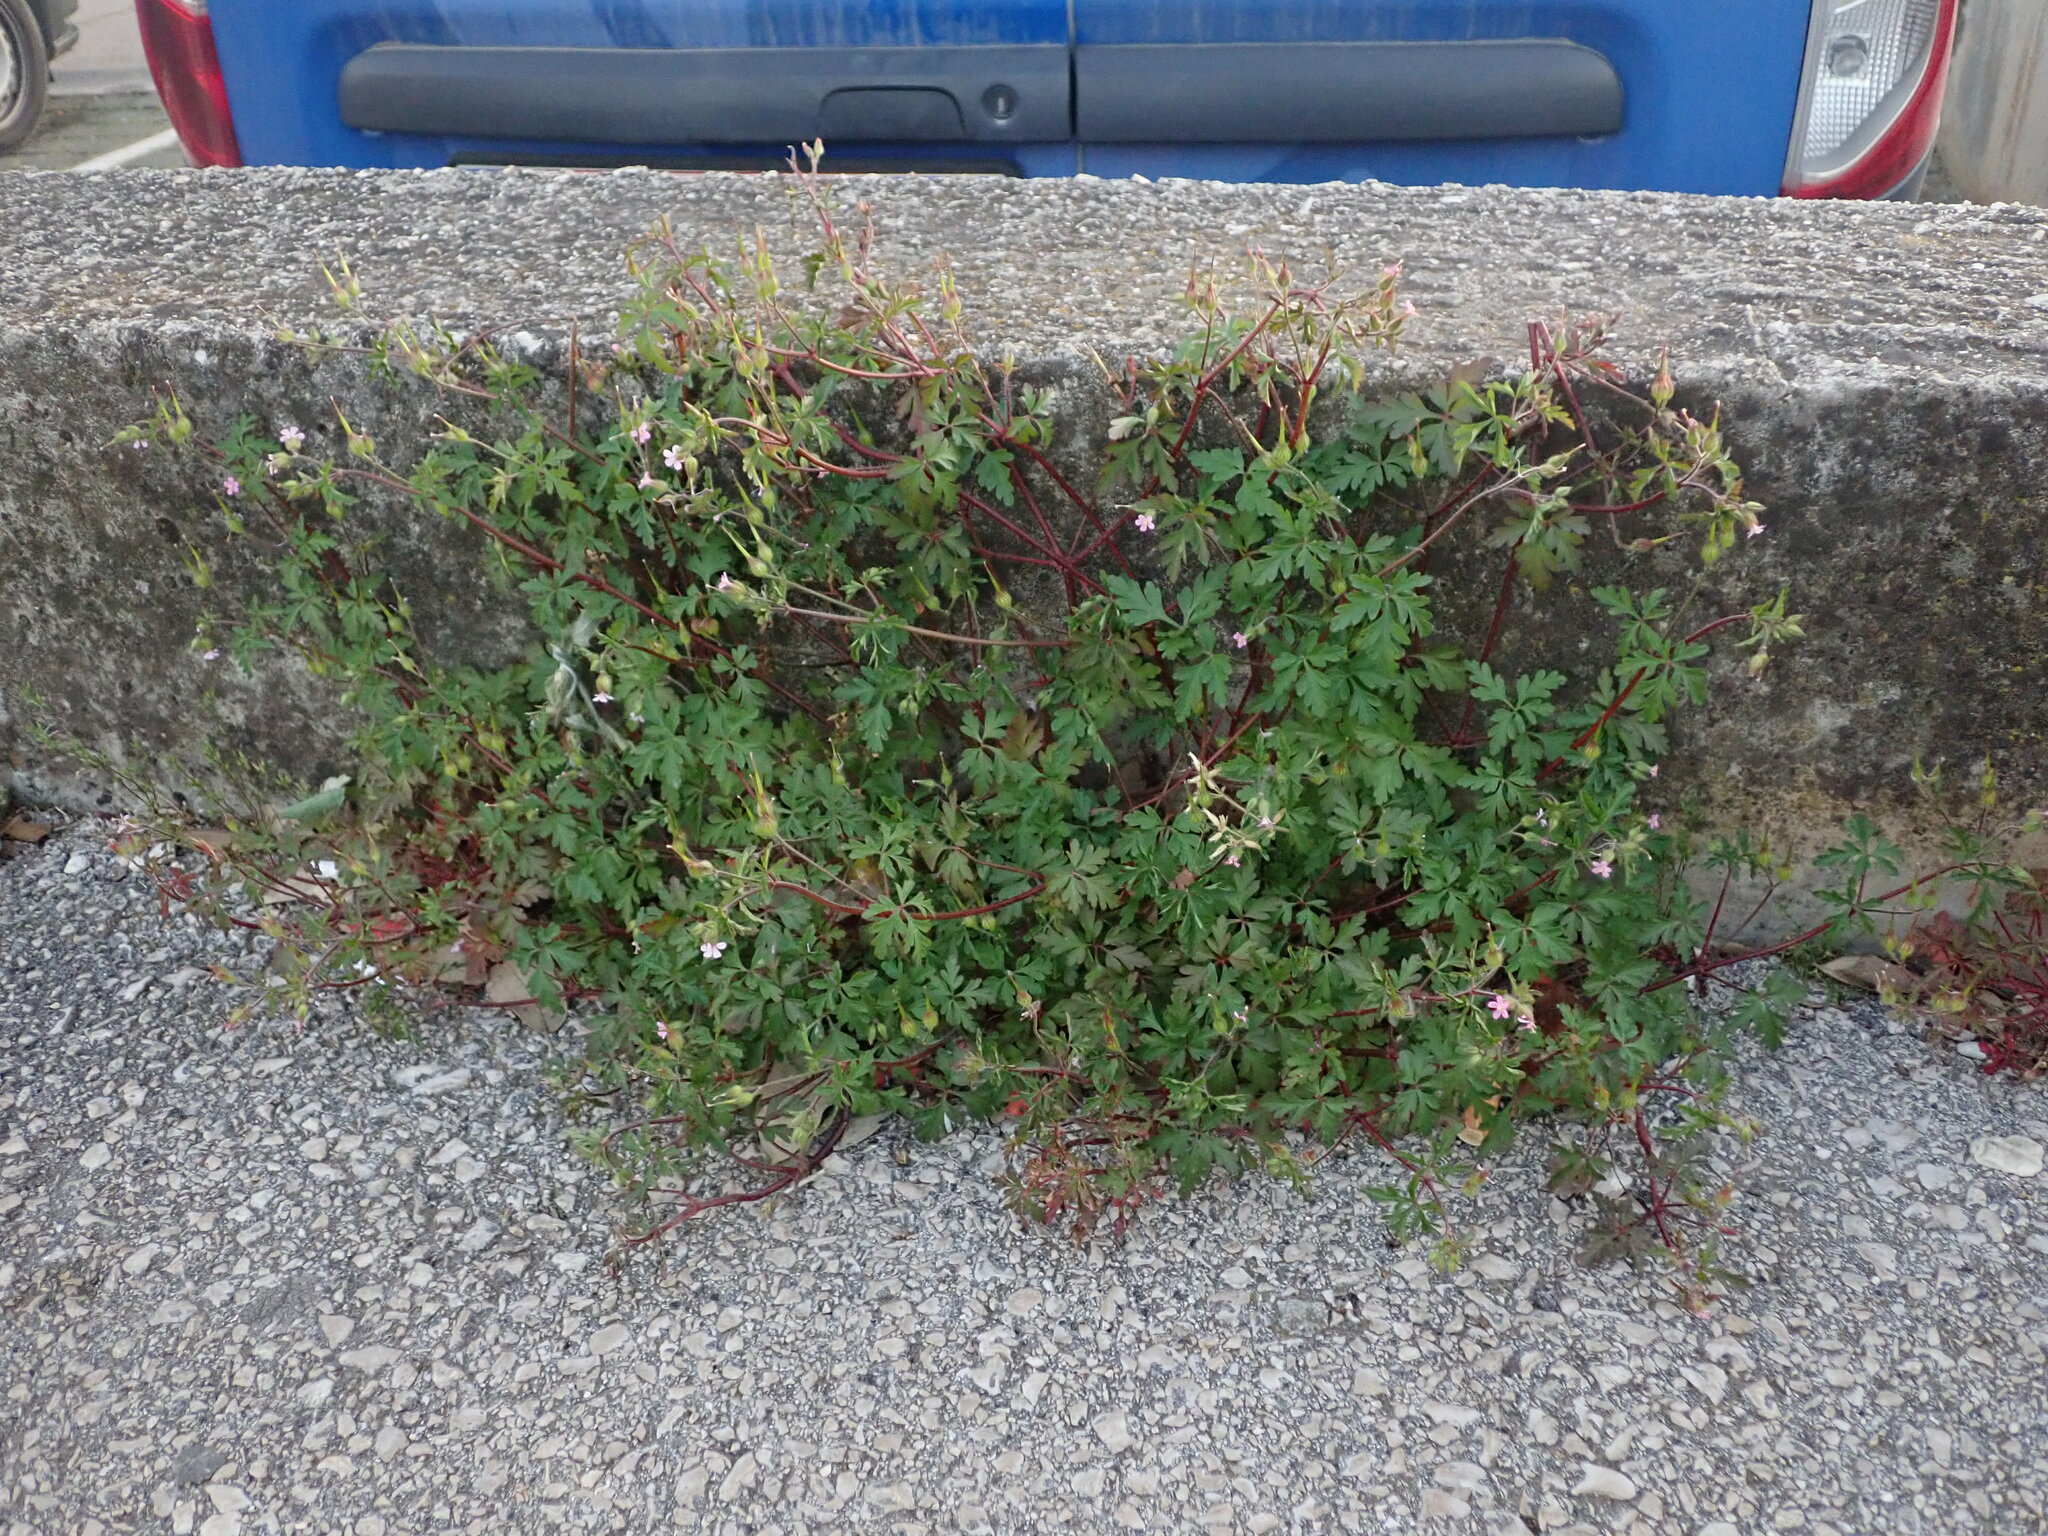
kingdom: Plantae
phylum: Tracheophyta
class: Magnoliopsida
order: Geraniales
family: Geraniaceae
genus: Geranium
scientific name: Geranium purpureum
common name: Little-robin
